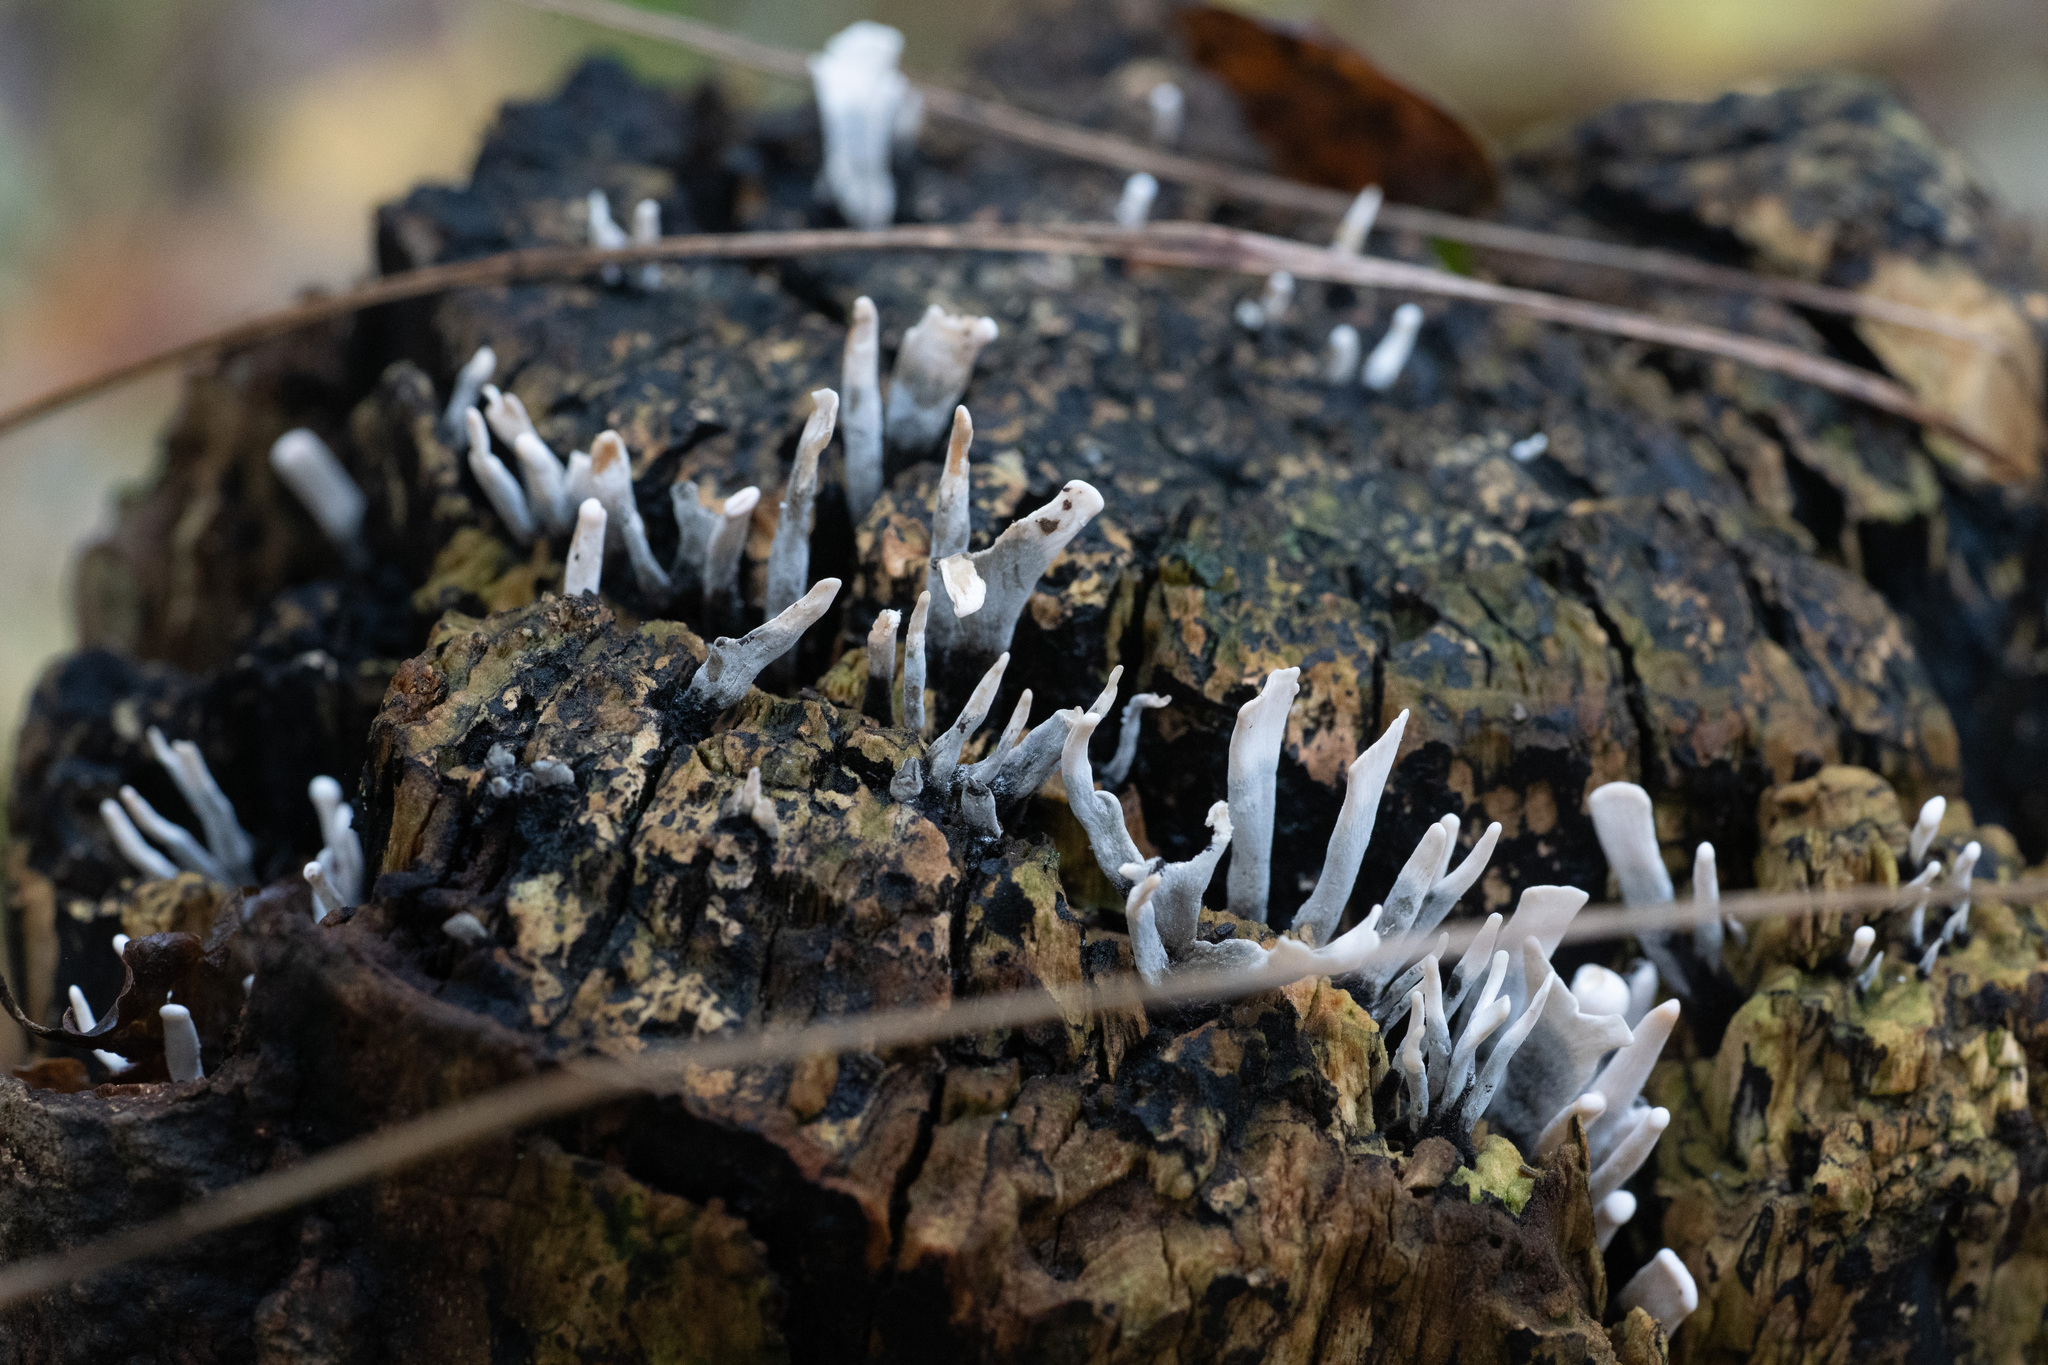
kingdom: Fungi
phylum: Ascomycota
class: Sordariomycetes
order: Xylariales
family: Xylariaceae
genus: Xylaria
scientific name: Xylaria hypoxylon
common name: Candle-snuff fungus
